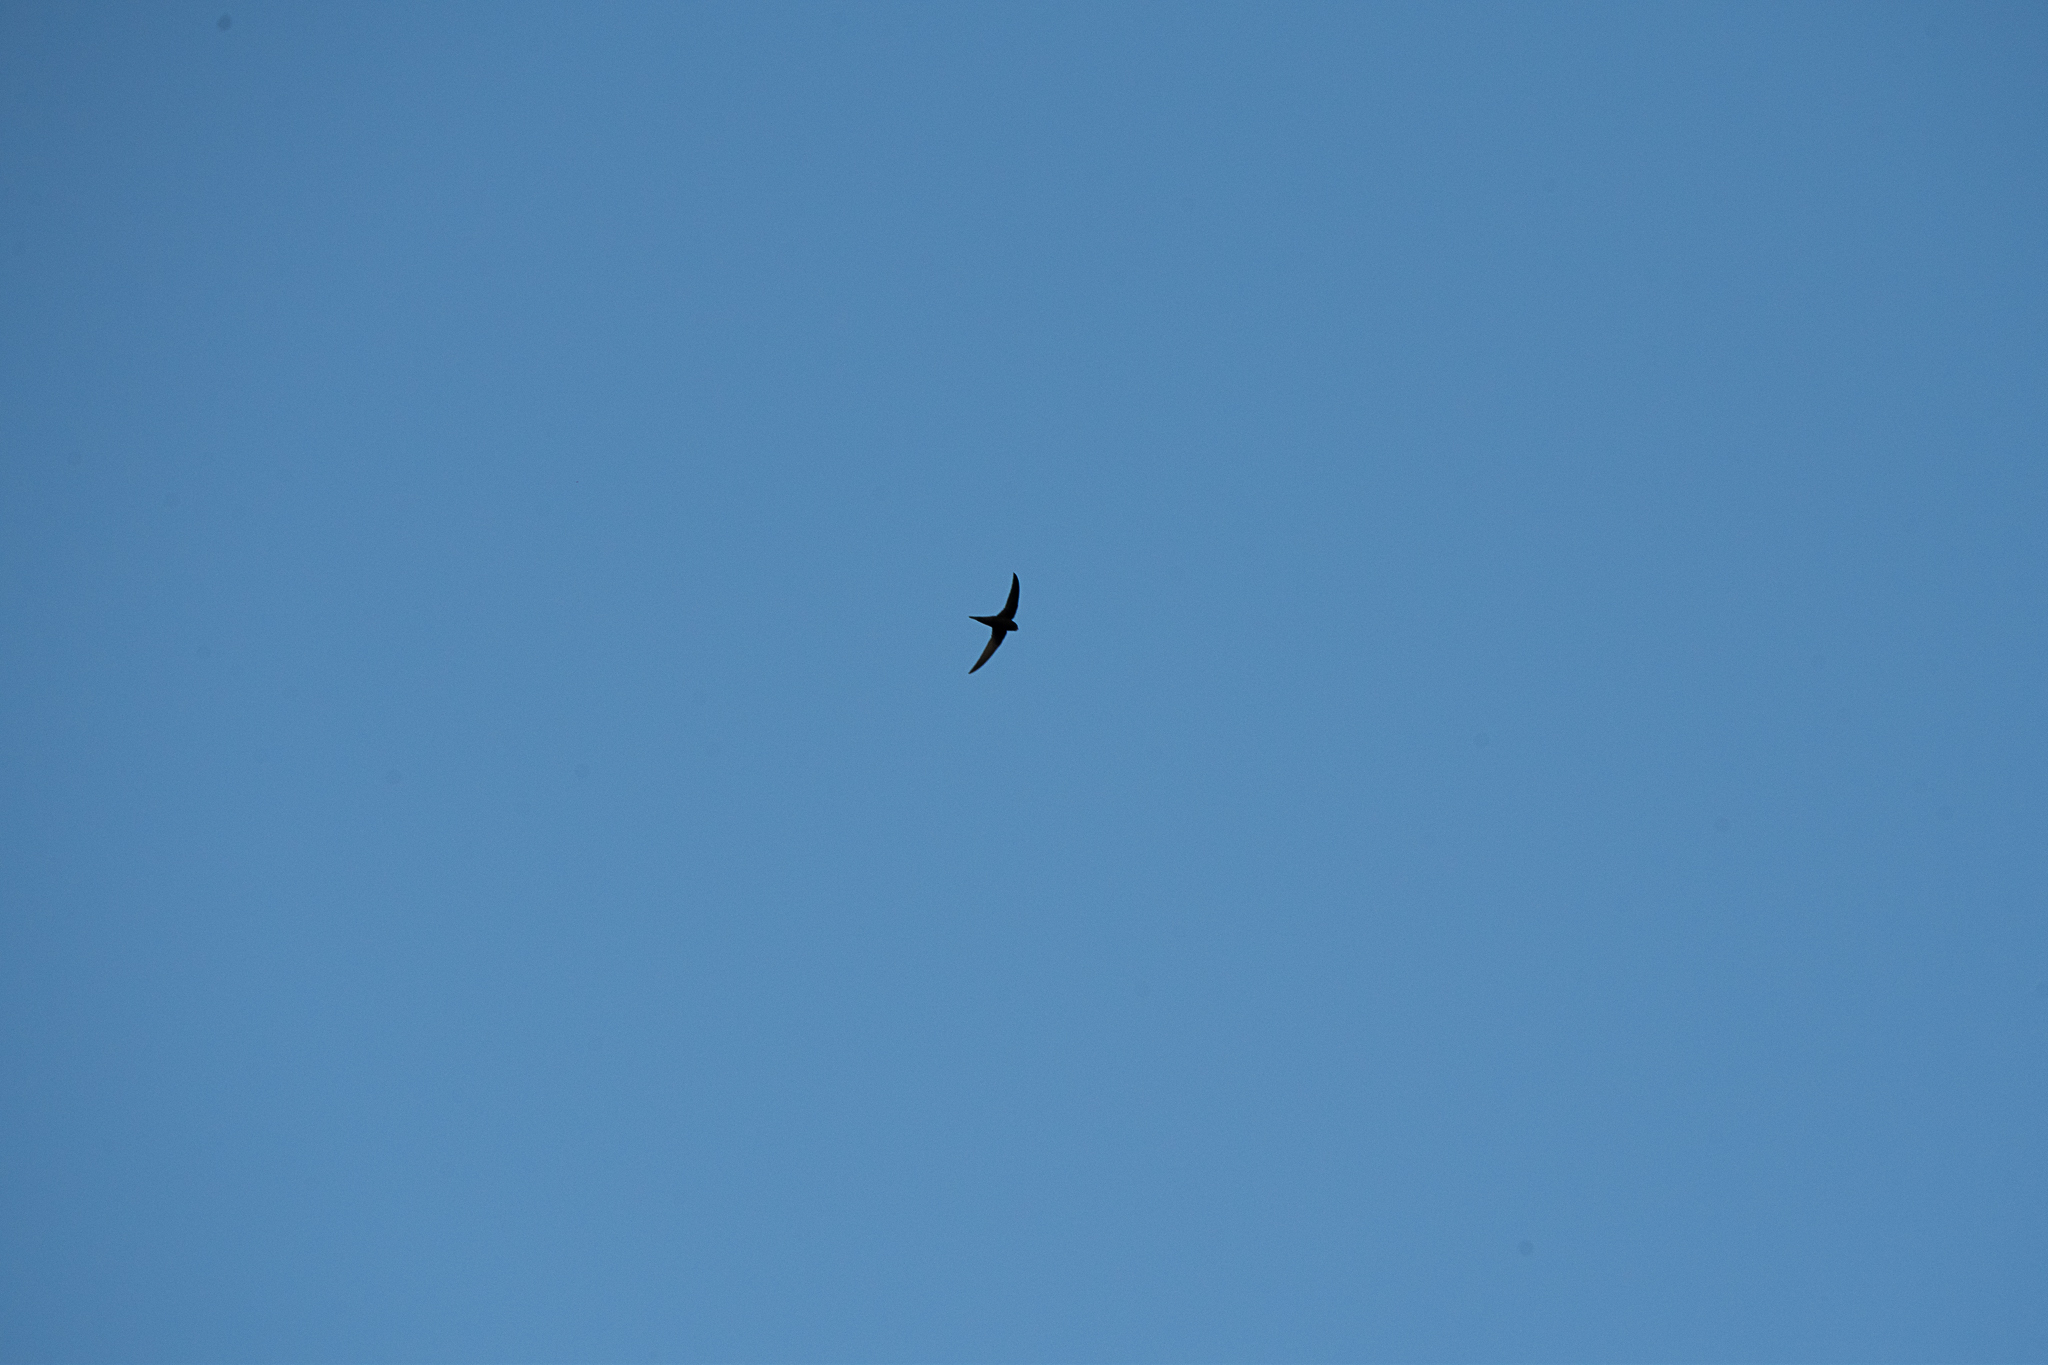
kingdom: Animalia
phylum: Chordata
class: Aves
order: Apodiformes
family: Apodidae
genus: Apus
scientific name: Apus apus
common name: Common swift
